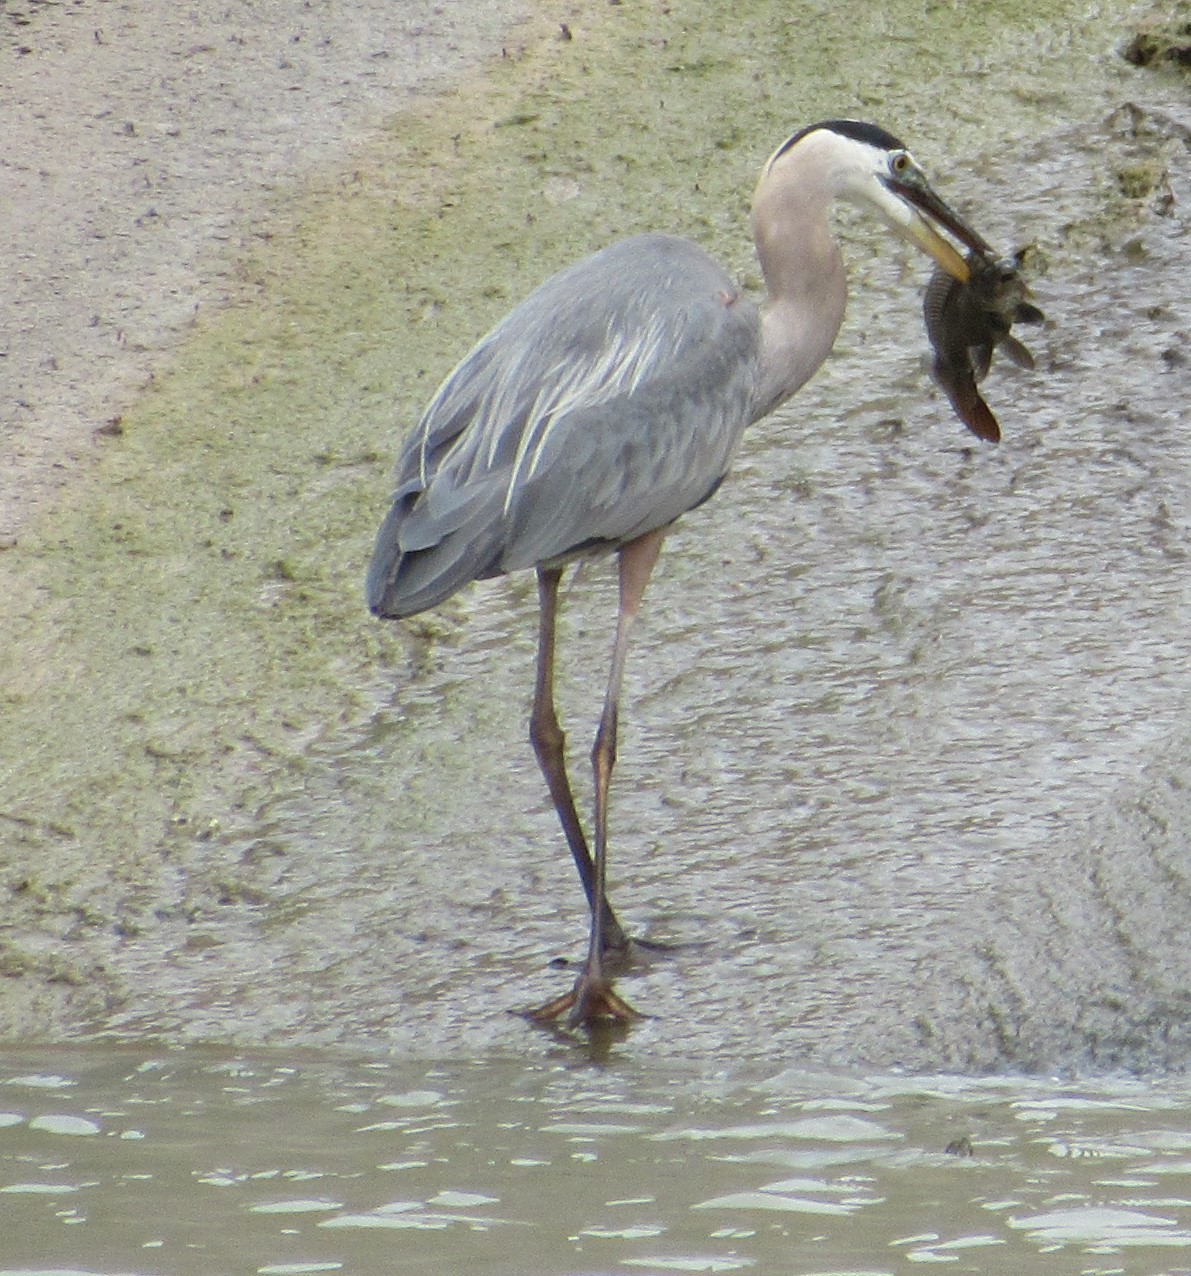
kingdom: Animalia
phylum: Chordata
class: Aves
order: Pelecaniformes
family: Ardeidae
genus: Ardea
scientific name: Ardea herodias
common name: Great blue heron
